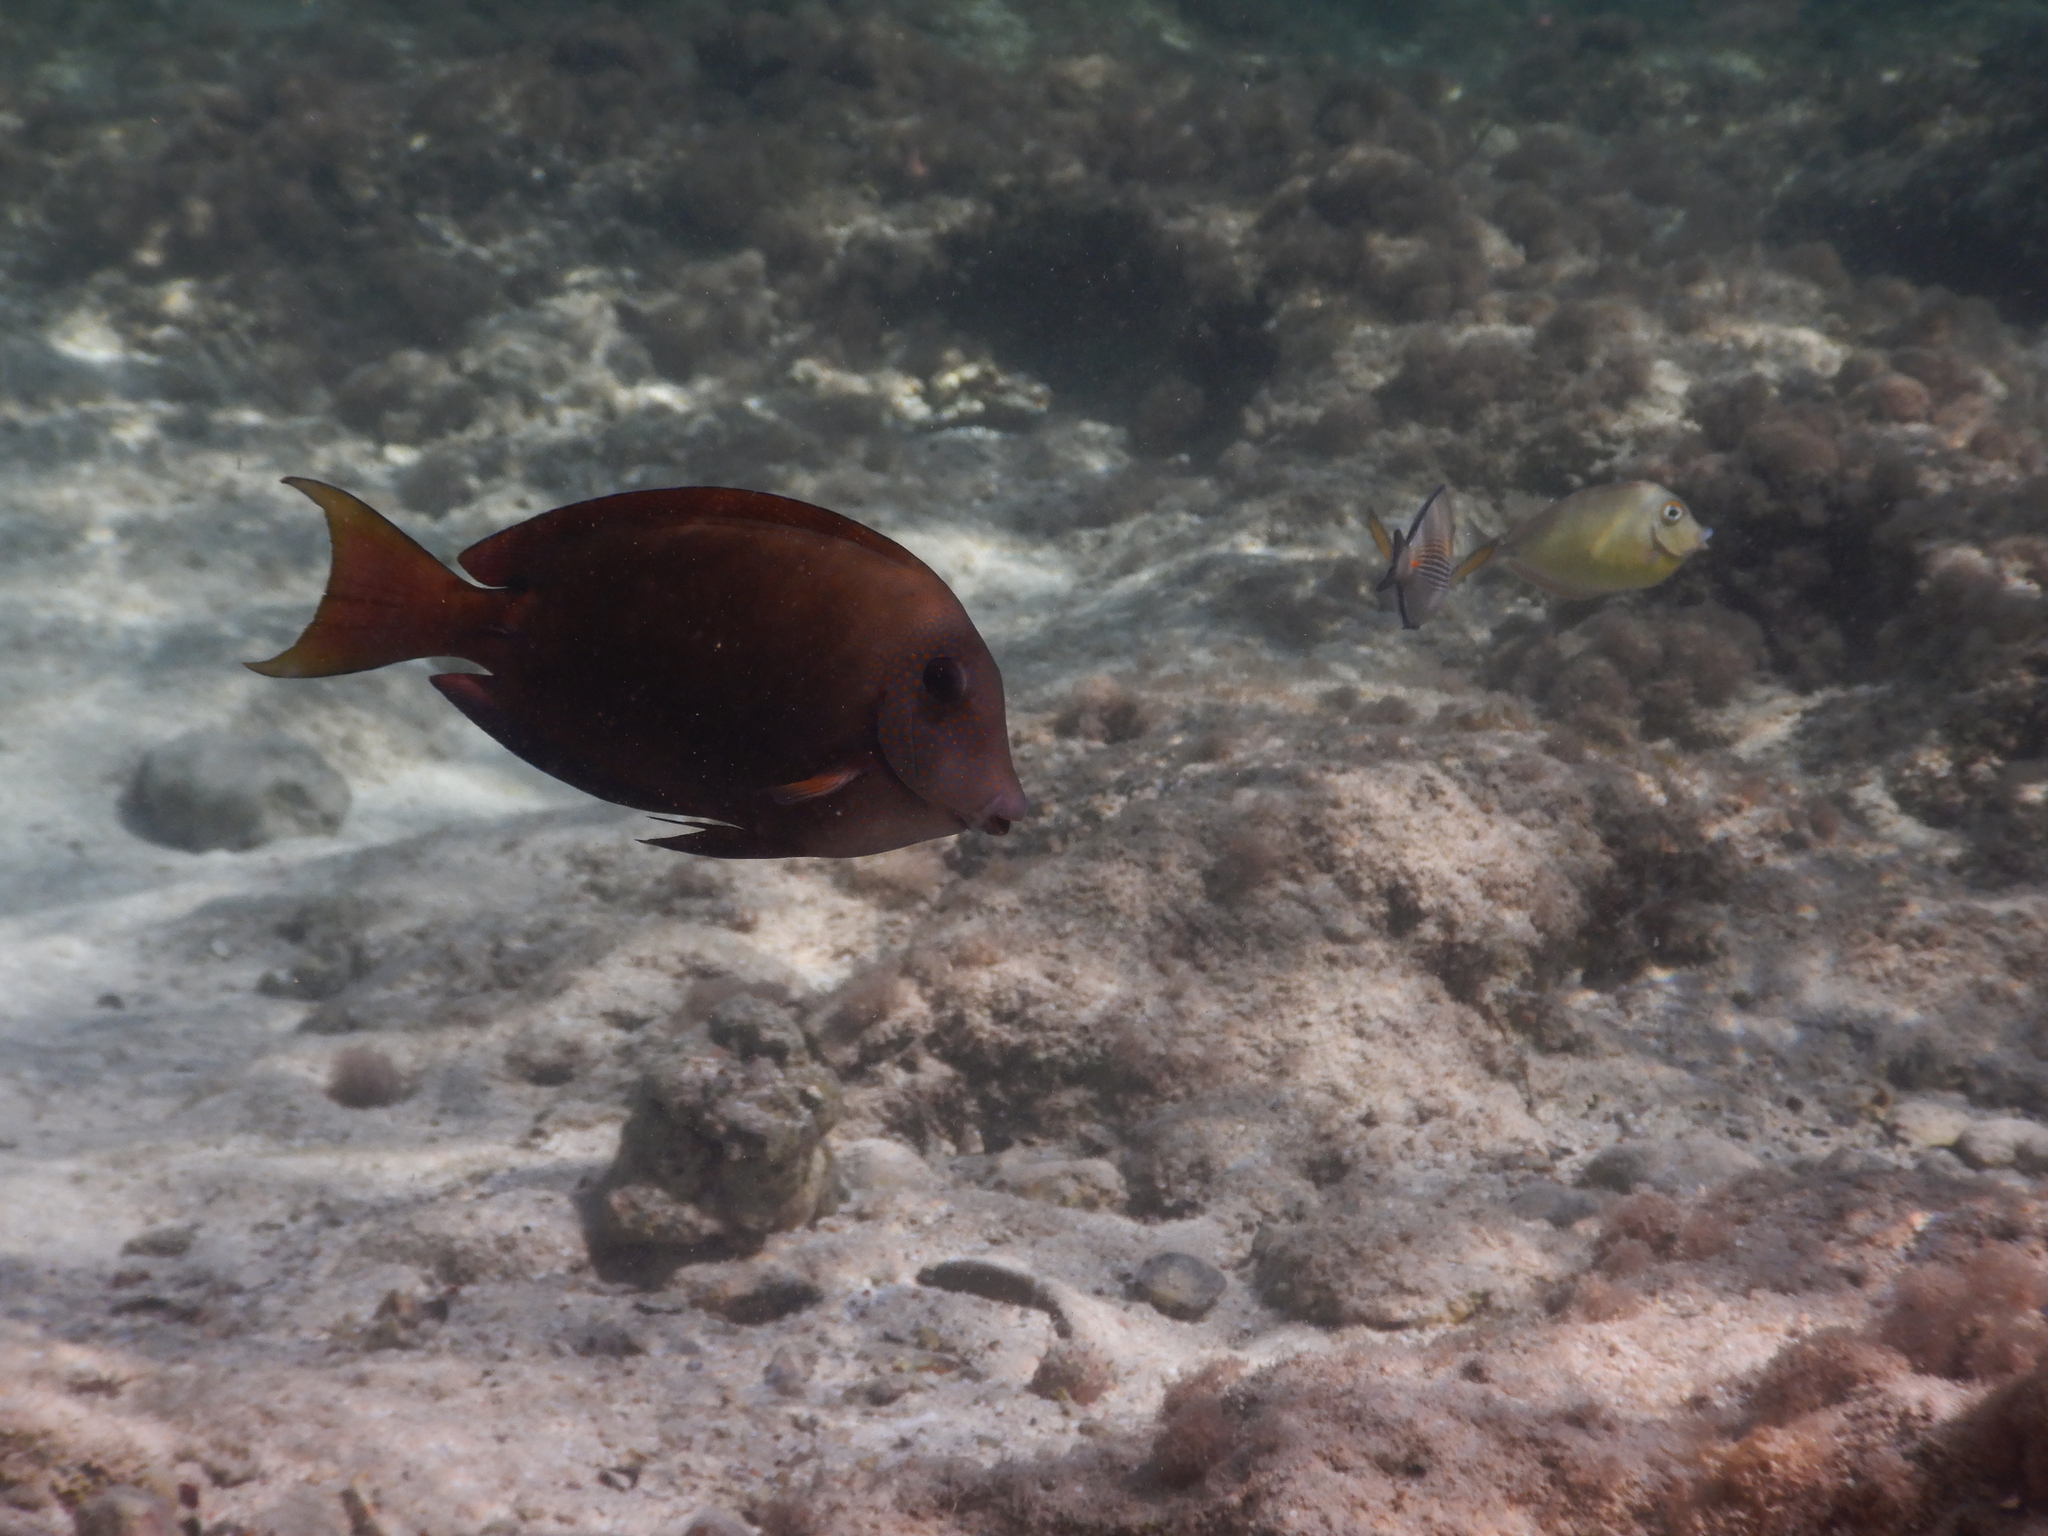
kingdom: Animalia
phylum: Chordata
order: Perciformes
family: Acanthuridae
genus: Acanthurus
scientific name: Acanthurus nigrofuscus
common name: Blackspot surgeonfish
